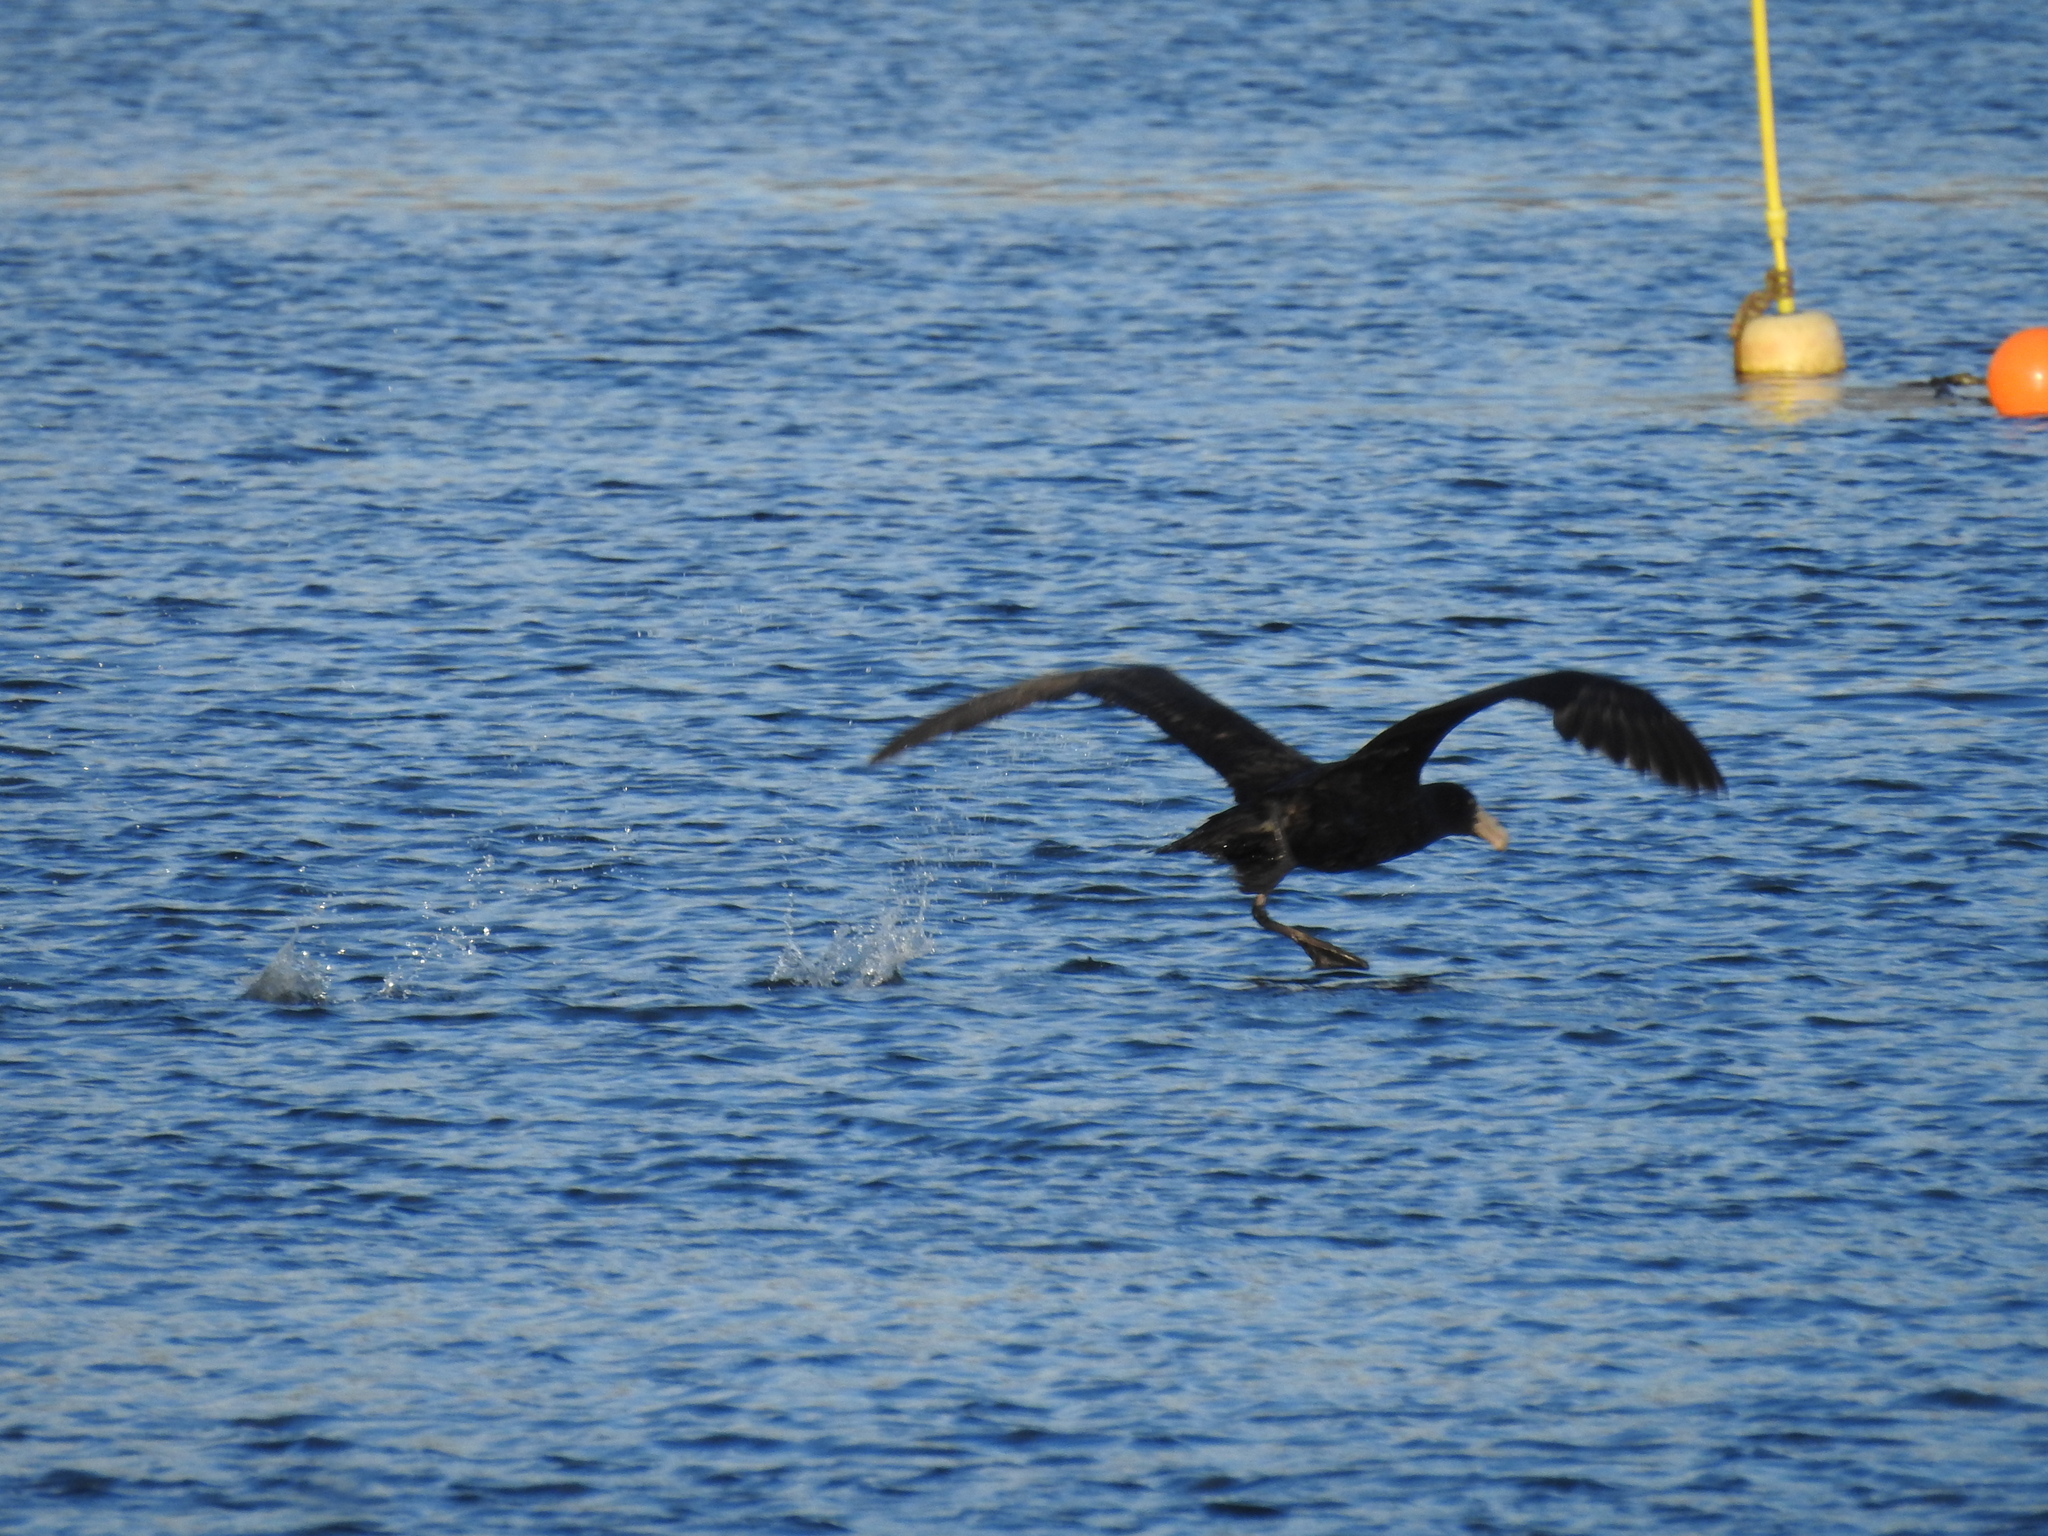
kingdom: Animalia
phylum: Chordata
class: Aves
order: Procellariiformes
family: Procellariidae
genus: Macronectes
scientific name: Macronectes giganteus
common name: Southern giant petrel
